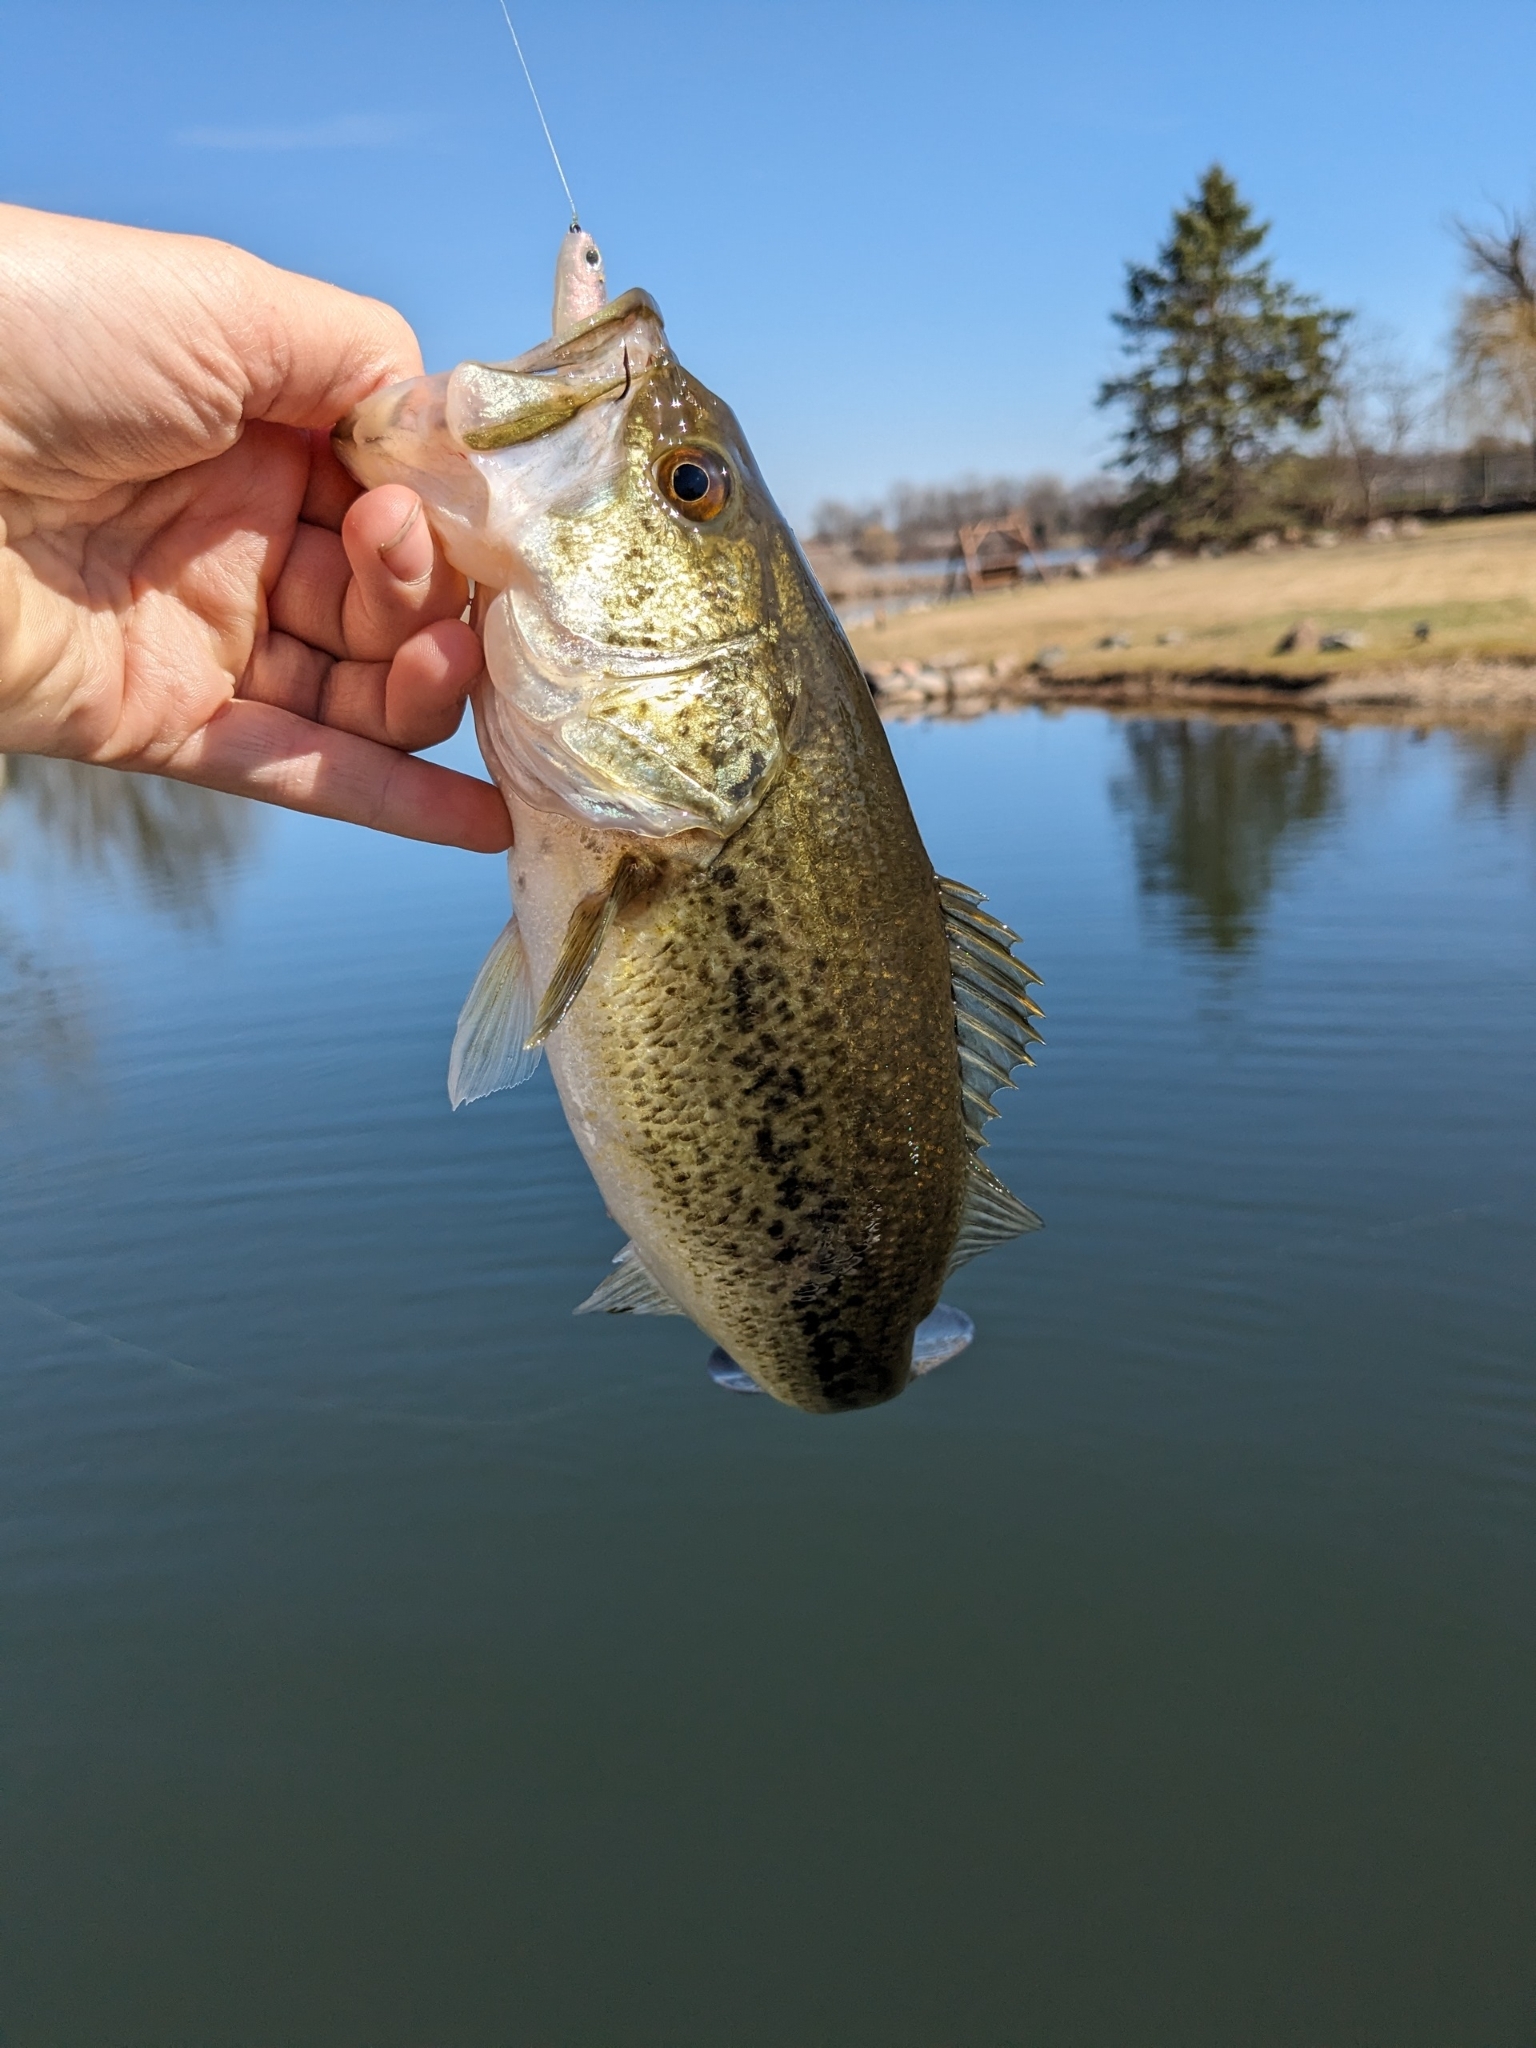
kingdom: Animalia
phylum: Chordata
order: Perciformes
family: Centrarchidae
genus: Micropterus
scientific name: Micropterus
